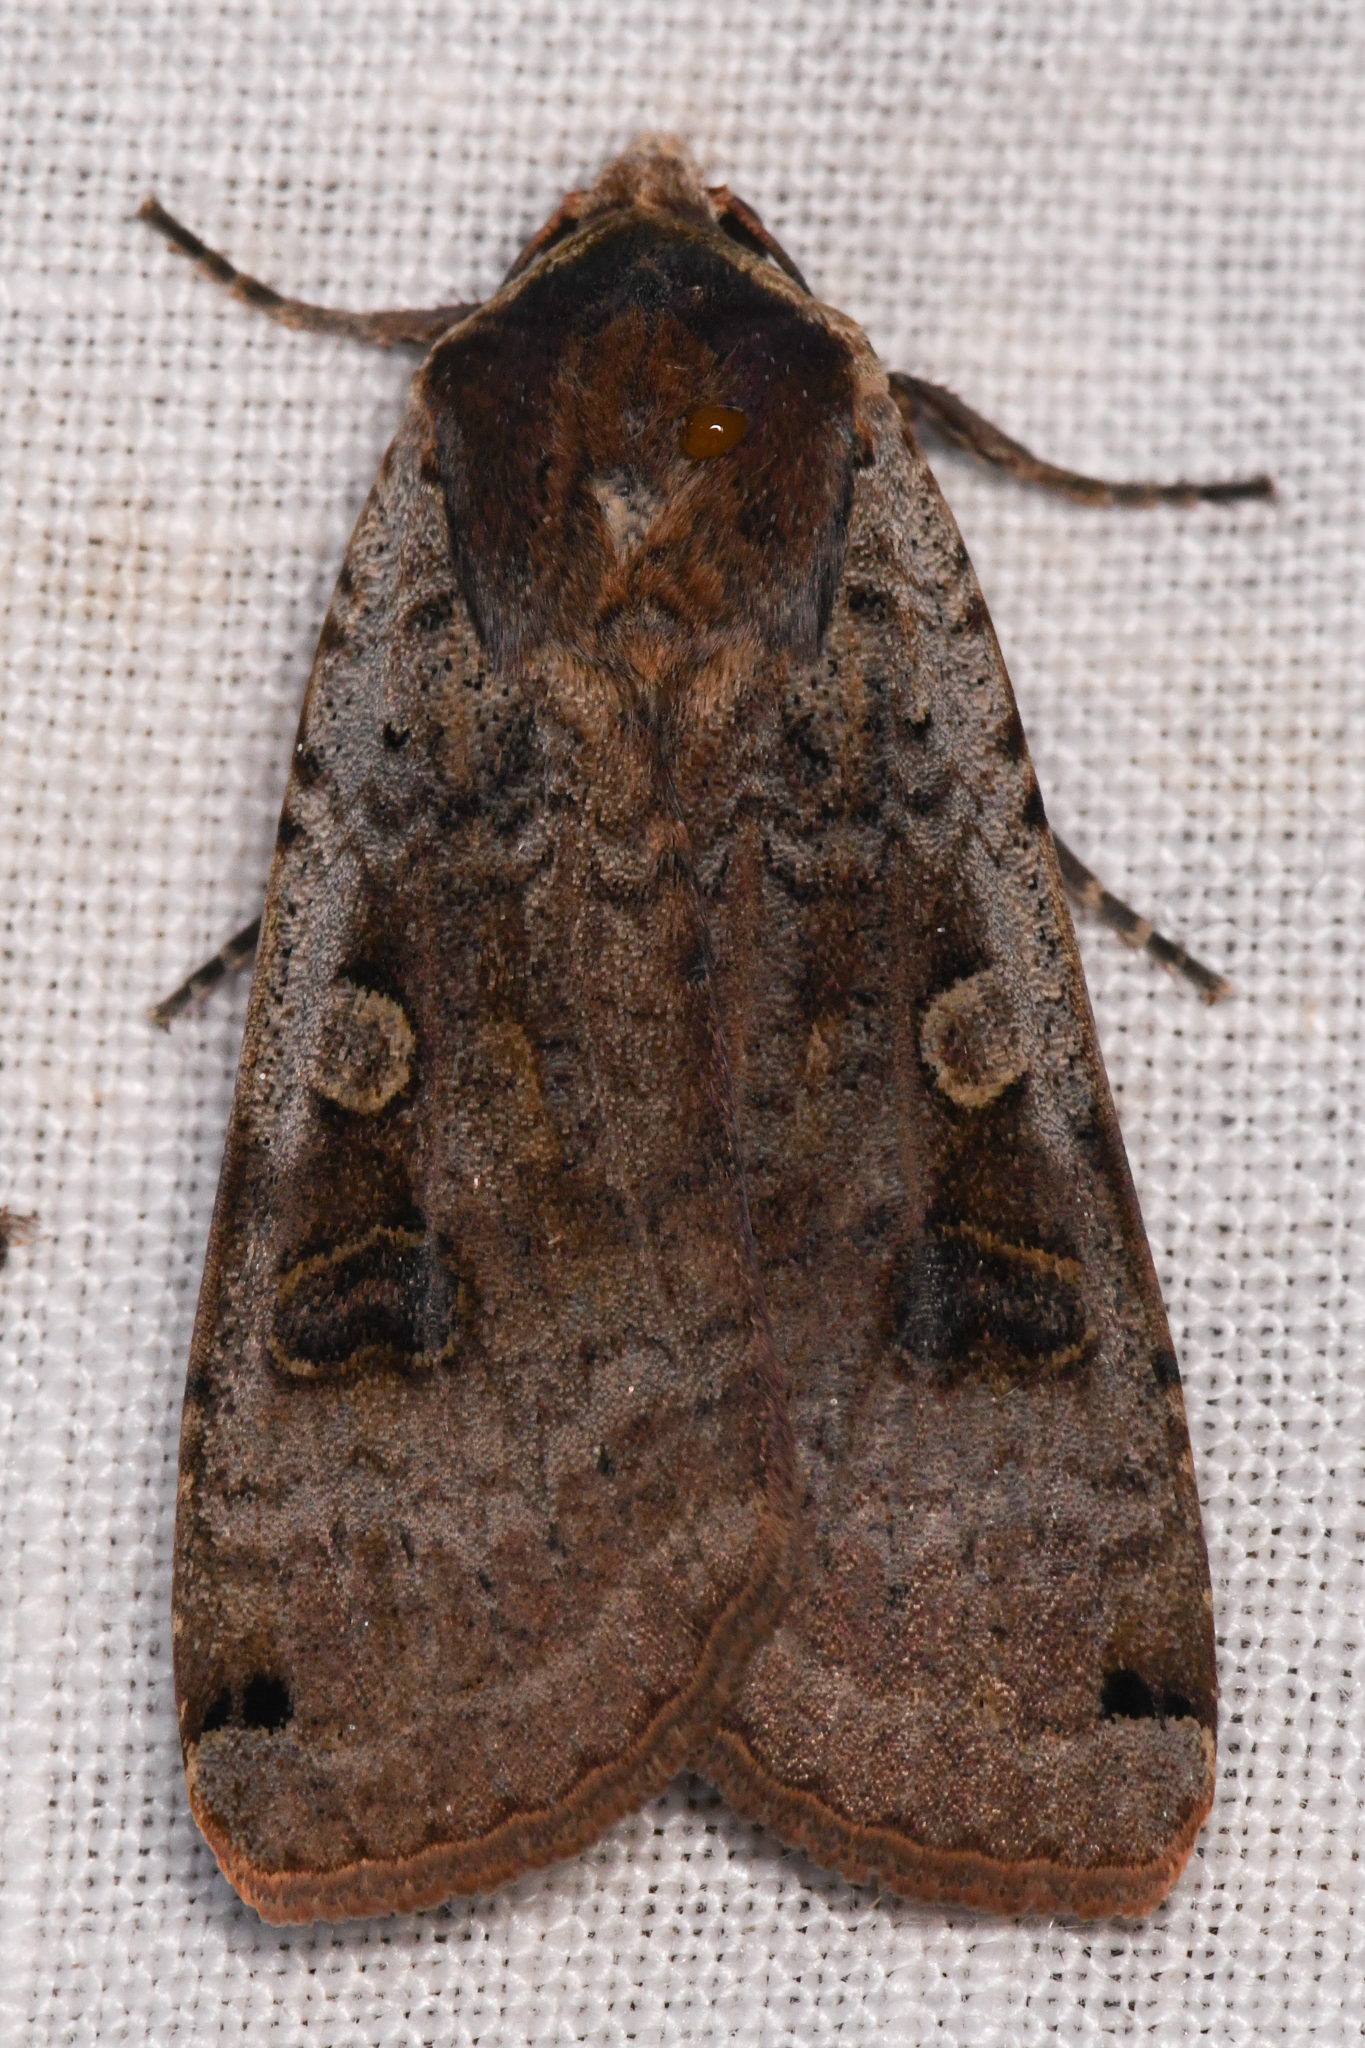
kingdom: Animalia
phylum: Arthropoda
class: Insecta
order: Lepidoptera
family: Noctuidae
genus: Noctua
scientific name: Noctua pronuba
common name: Large yellow underwing
